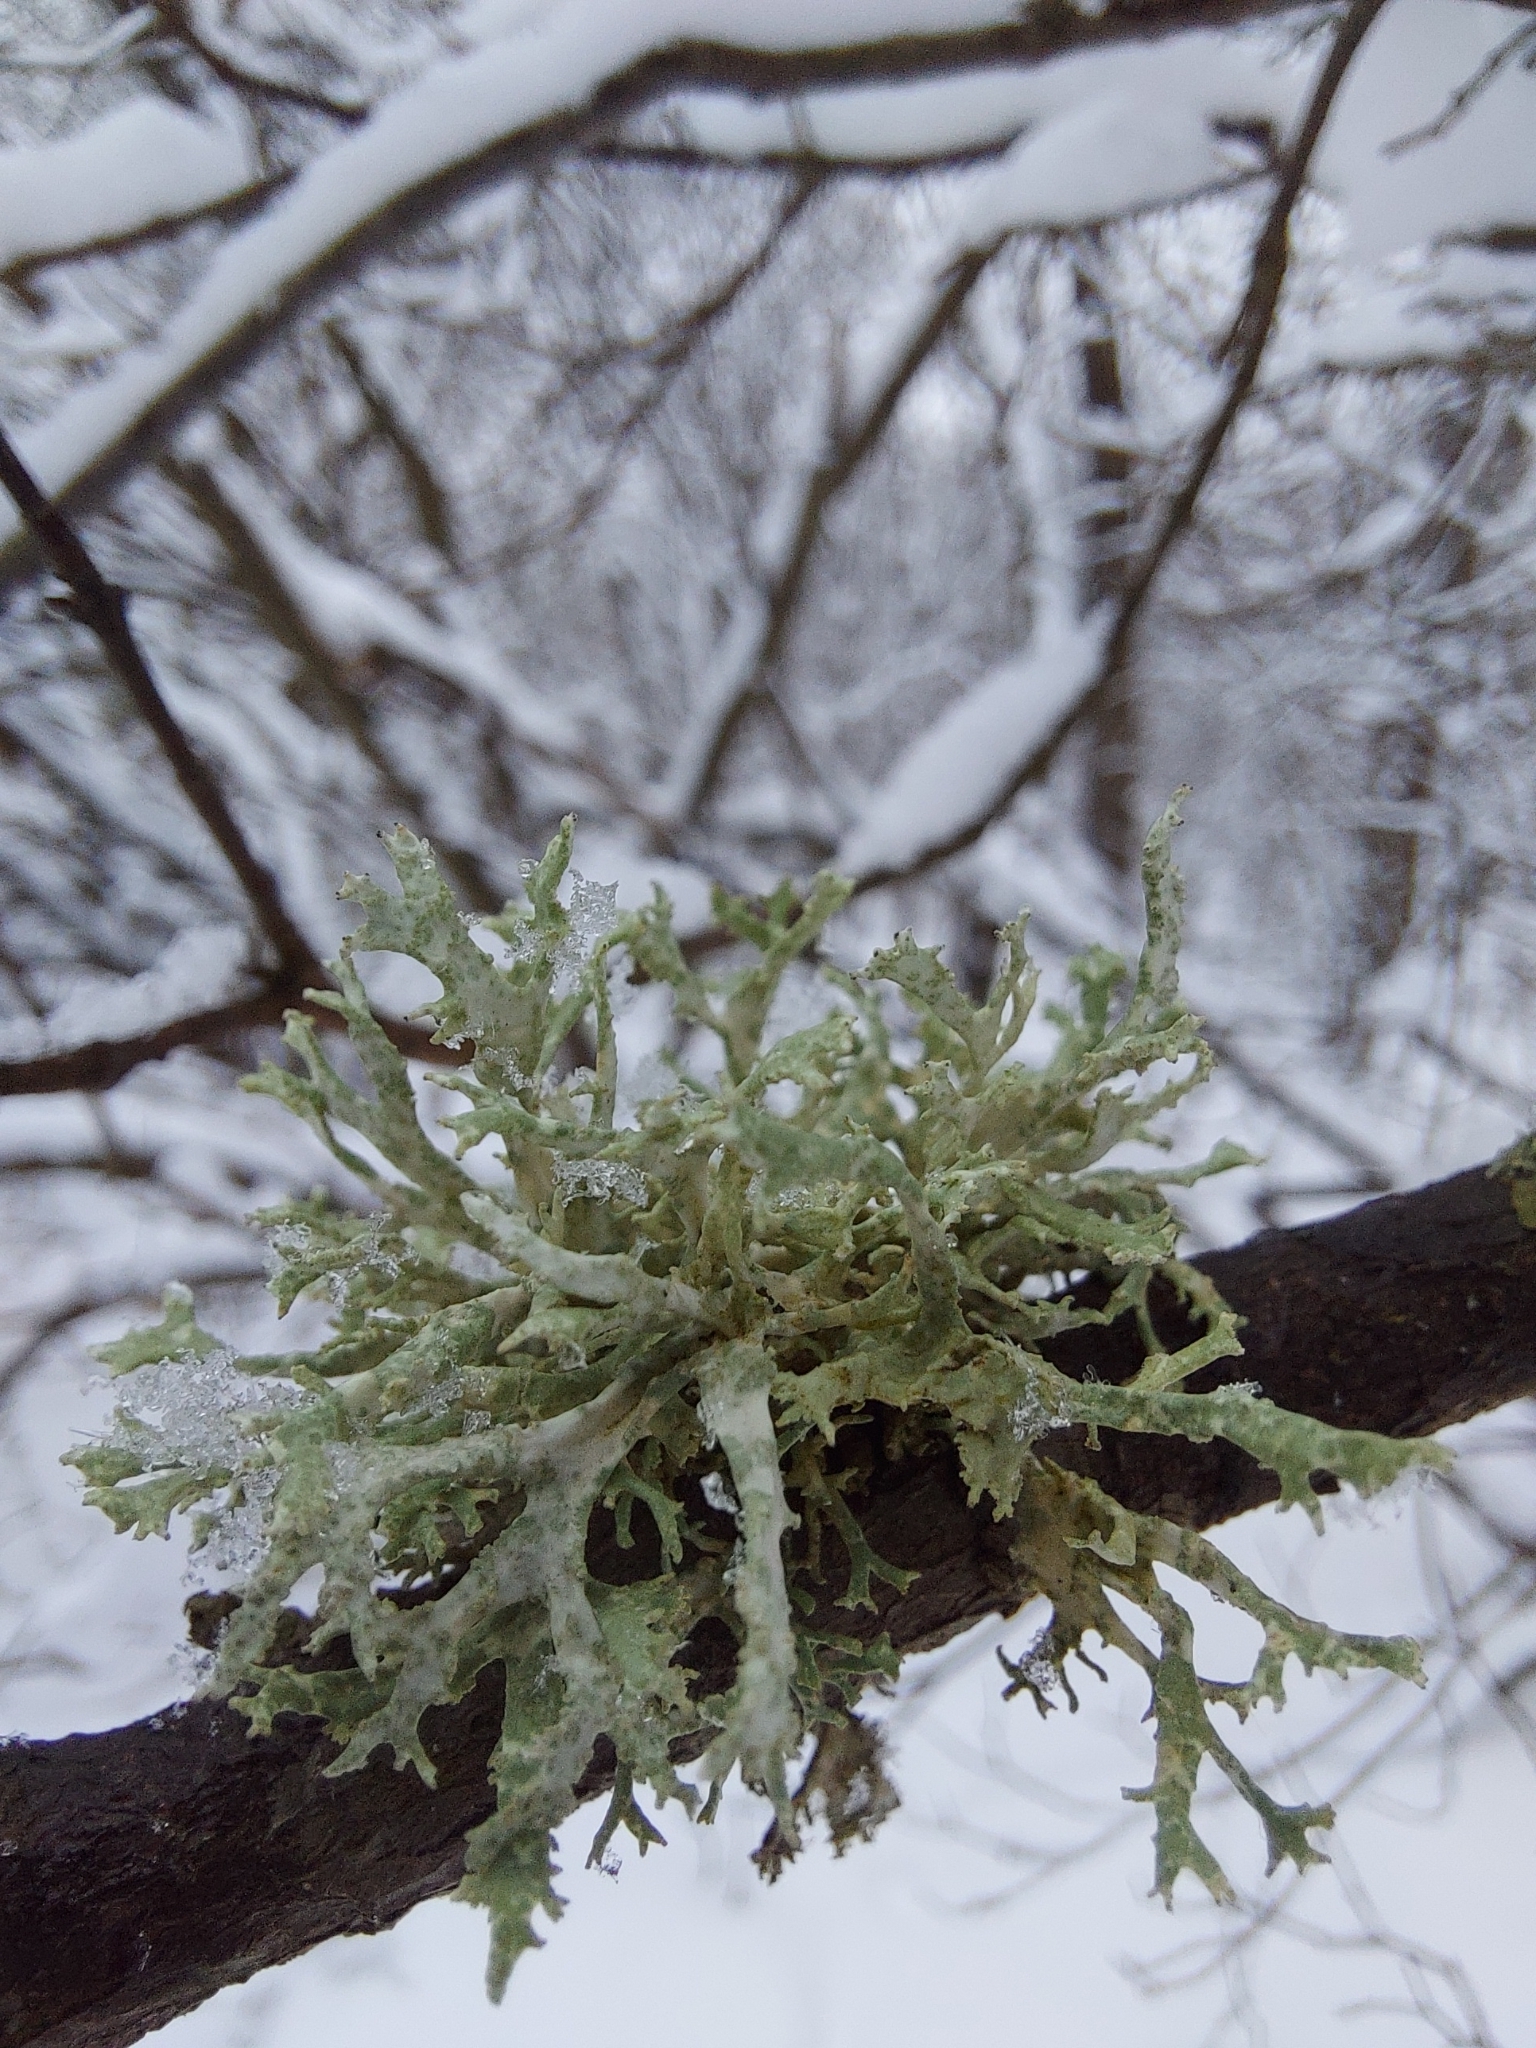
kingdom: Fungi
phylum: Ascomycota
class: Lecanoromycetes
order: Lecanorales
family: Parmeliaceae
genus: Evernia
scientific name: Evernia prunastri
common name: Oak moss
